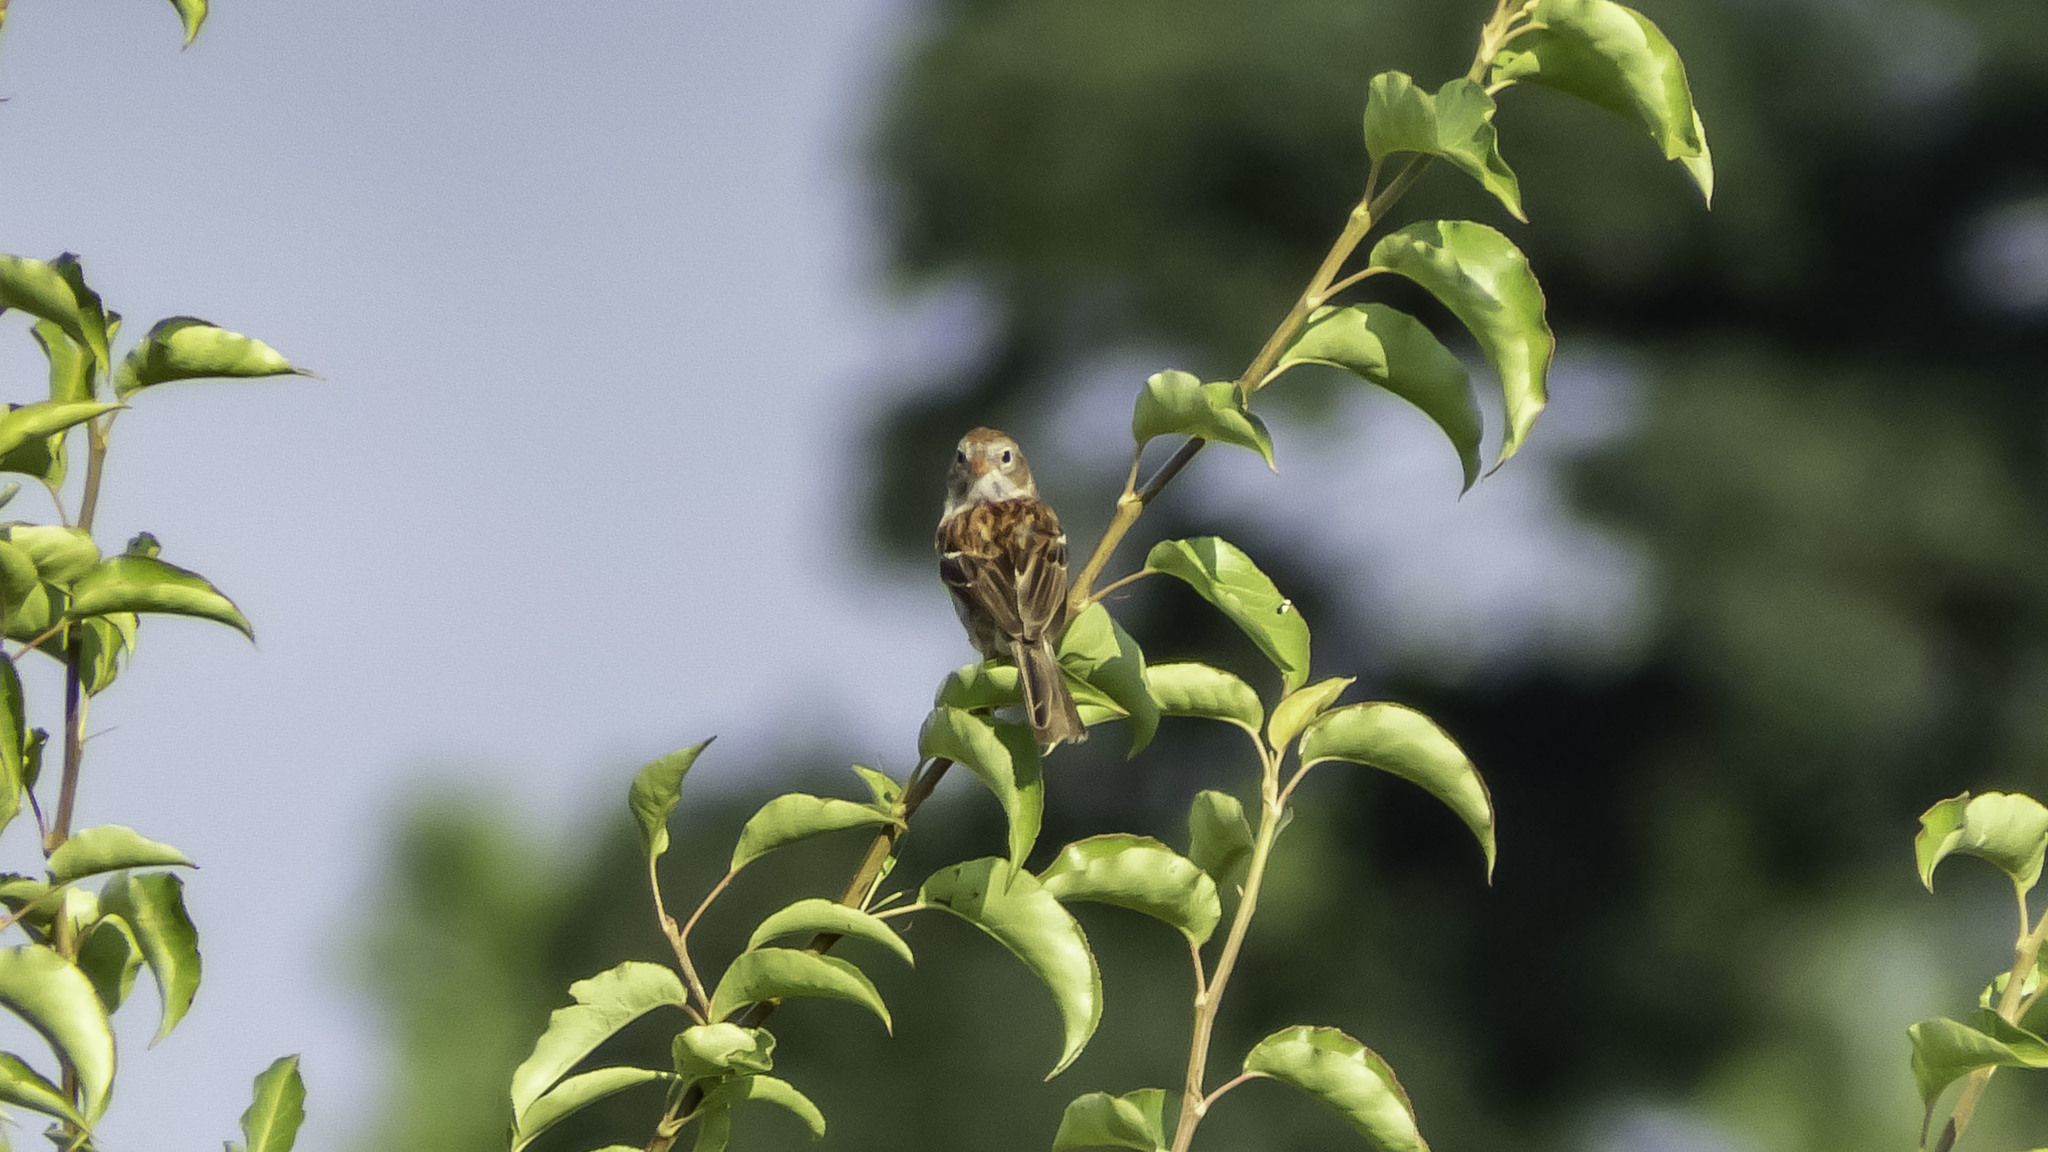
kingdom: Animalia
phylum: Chordata
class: Aves
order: Passeriformes
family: Passerellidae
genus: Spizella
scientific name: Spizella pusilla
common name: Field sparrow
